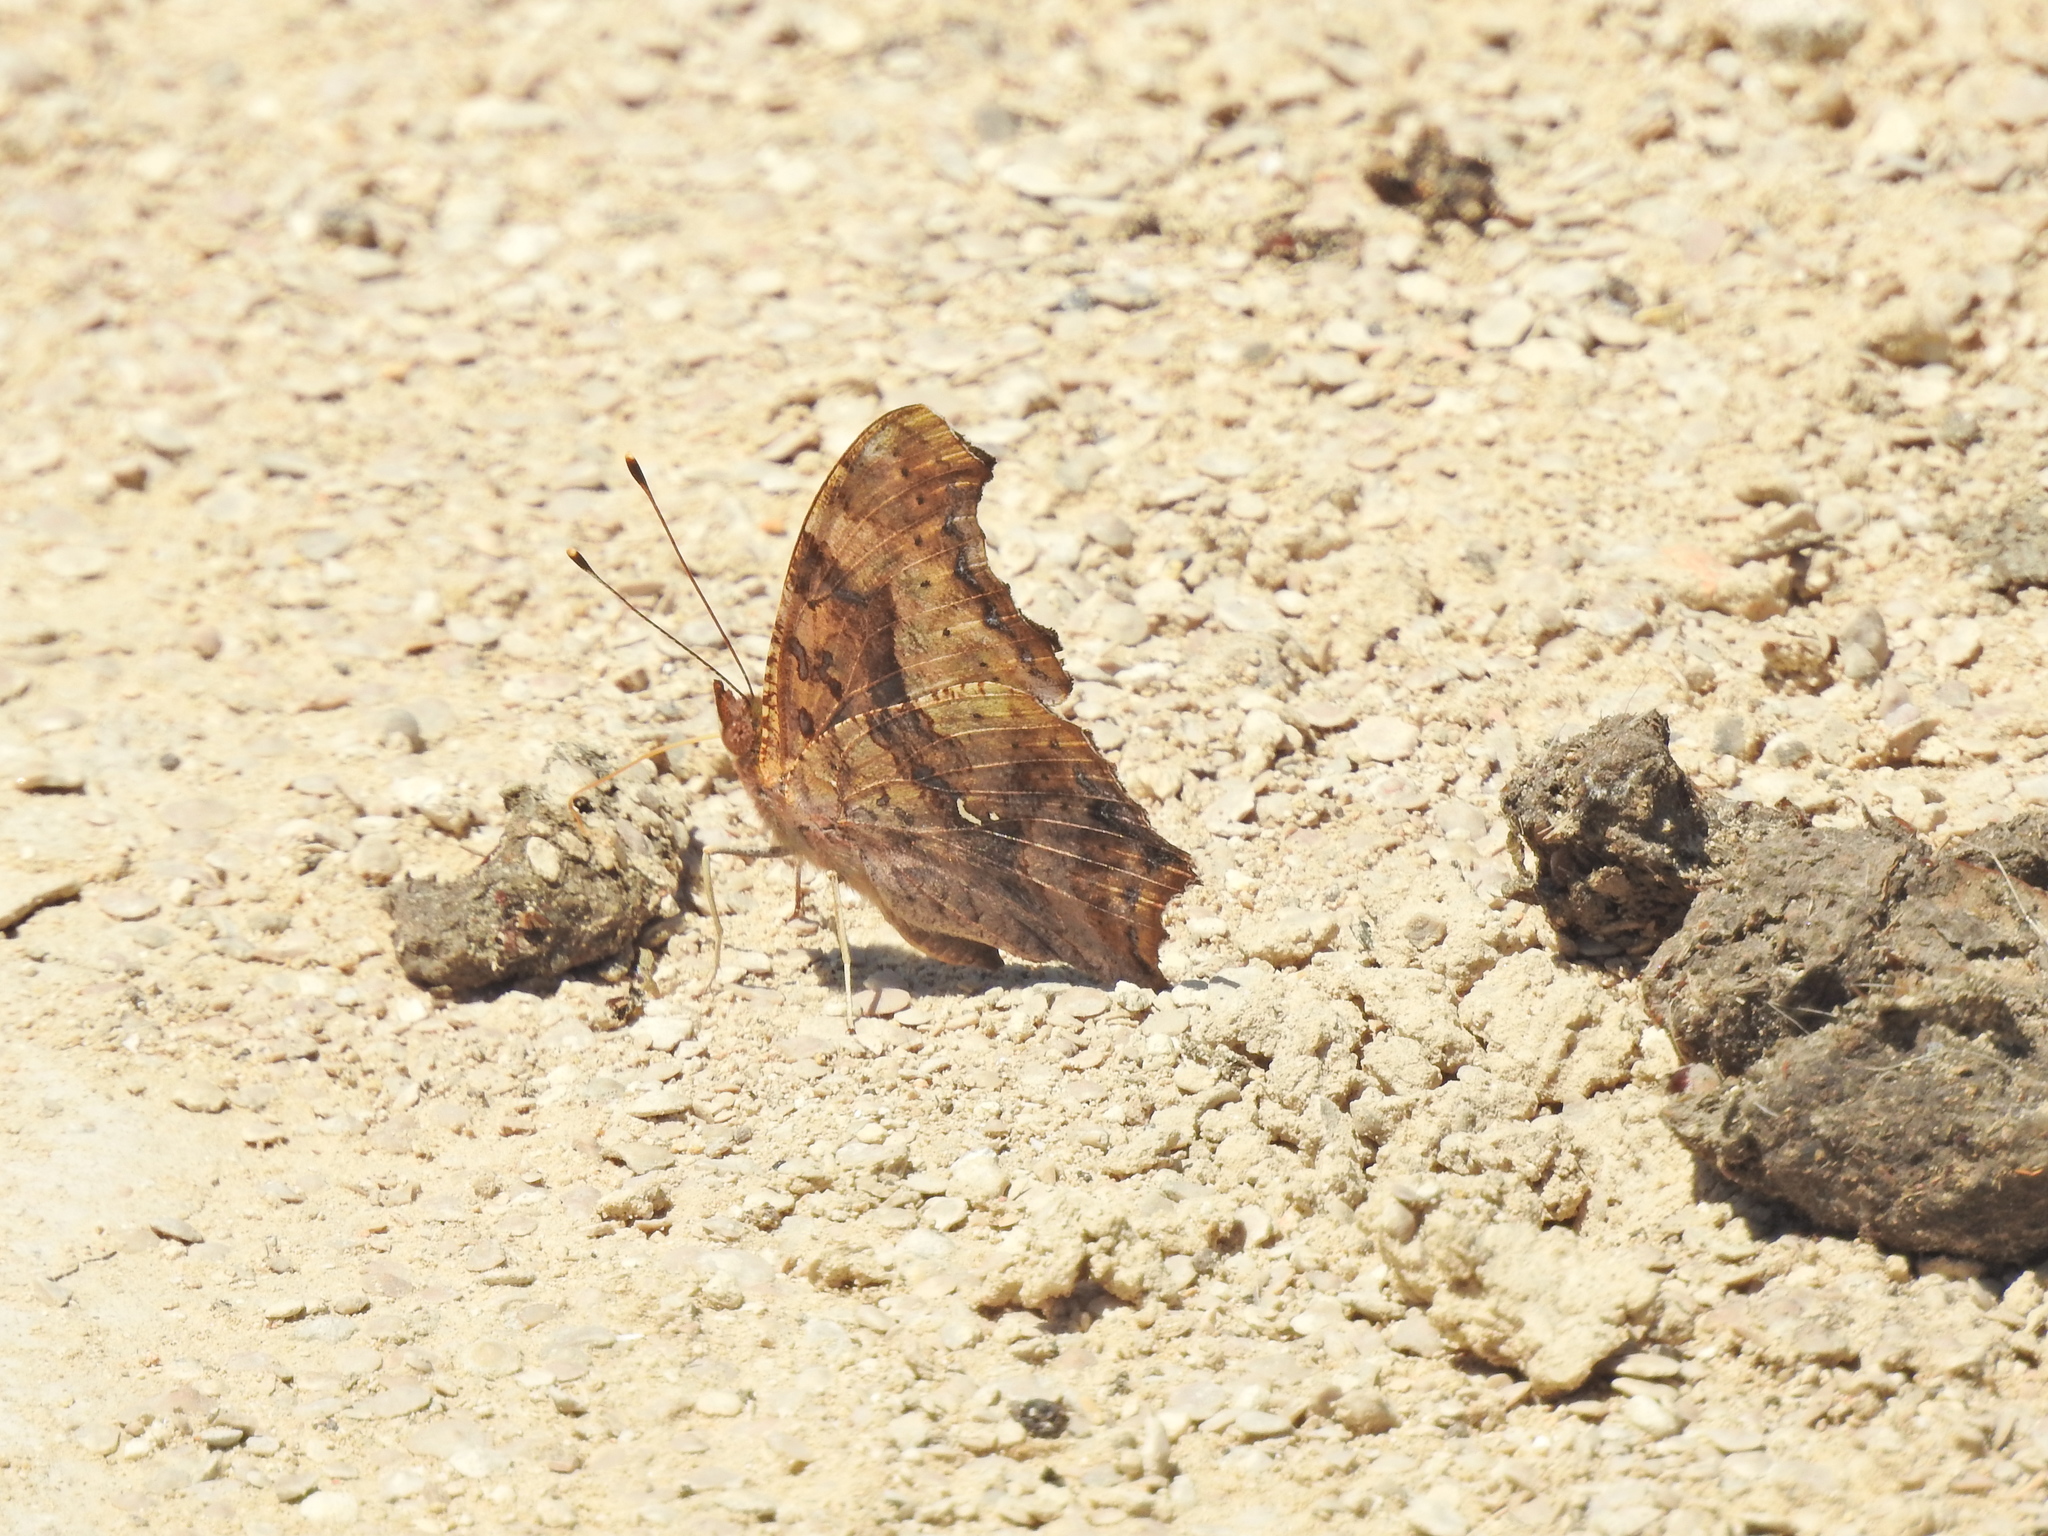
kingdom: Animalia
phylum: Arthropoda
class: Insecta
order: Lepidoptera
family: Nymphalidae
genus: Polygonia
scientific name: Polygonia interrogationis
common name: Question mark
